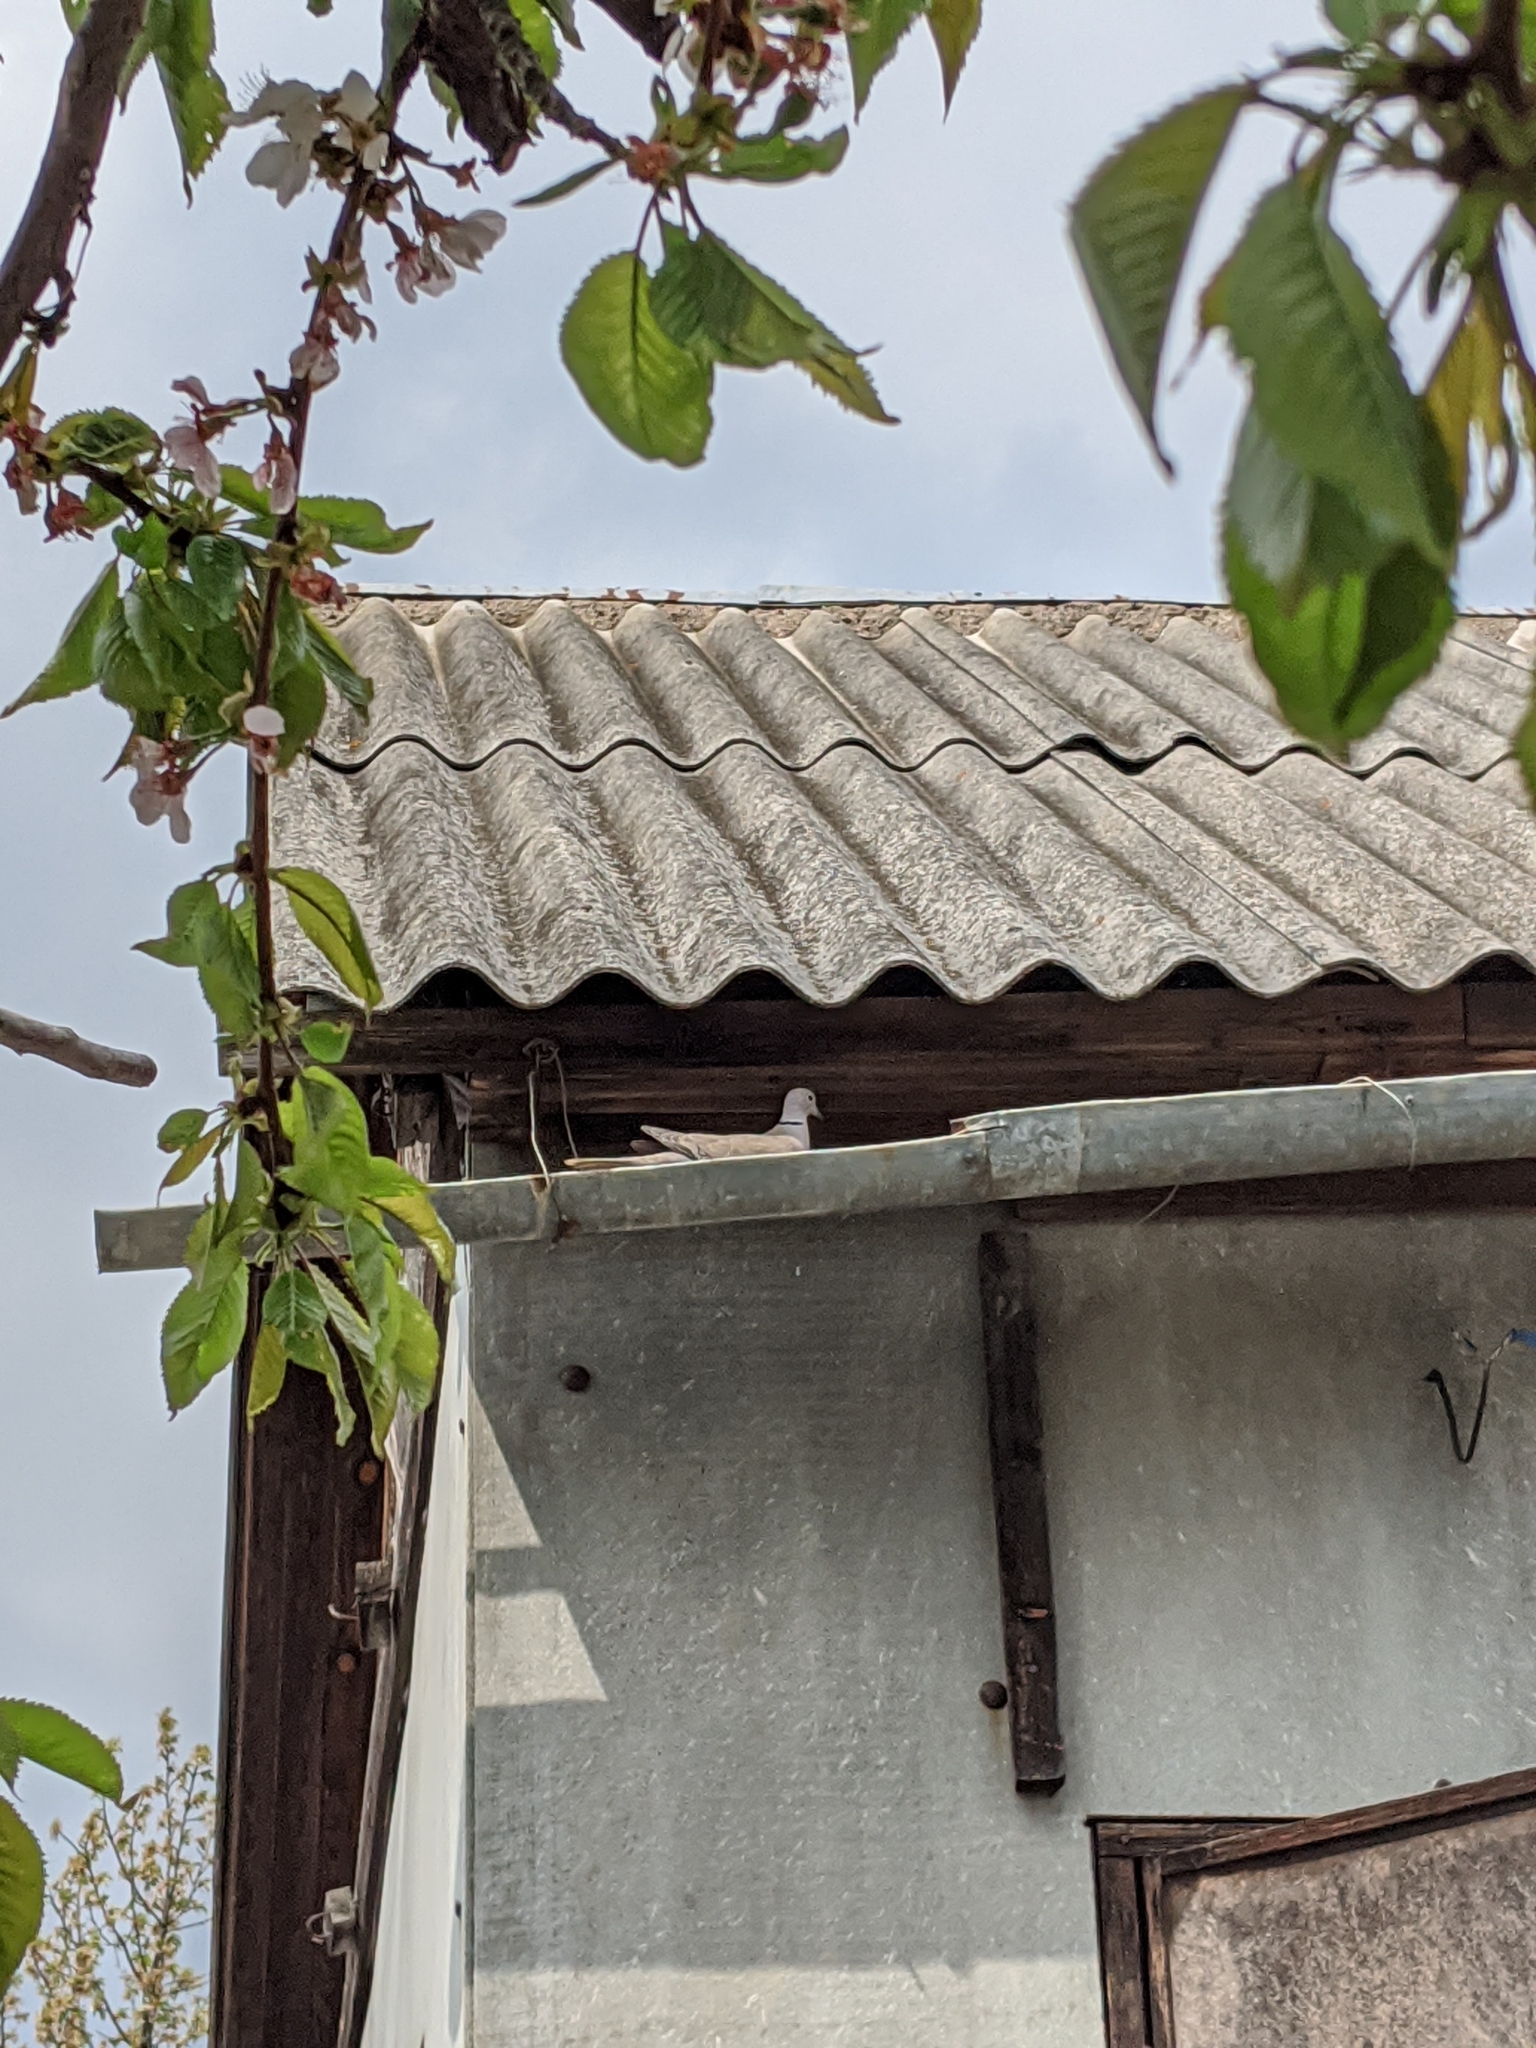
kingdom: Animalia
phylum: Chordata
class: Aves
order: Columbiformes
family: Columbidae
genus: Streptopelia
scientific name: Streptopelia decaocto
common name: Eurasian collared dove
